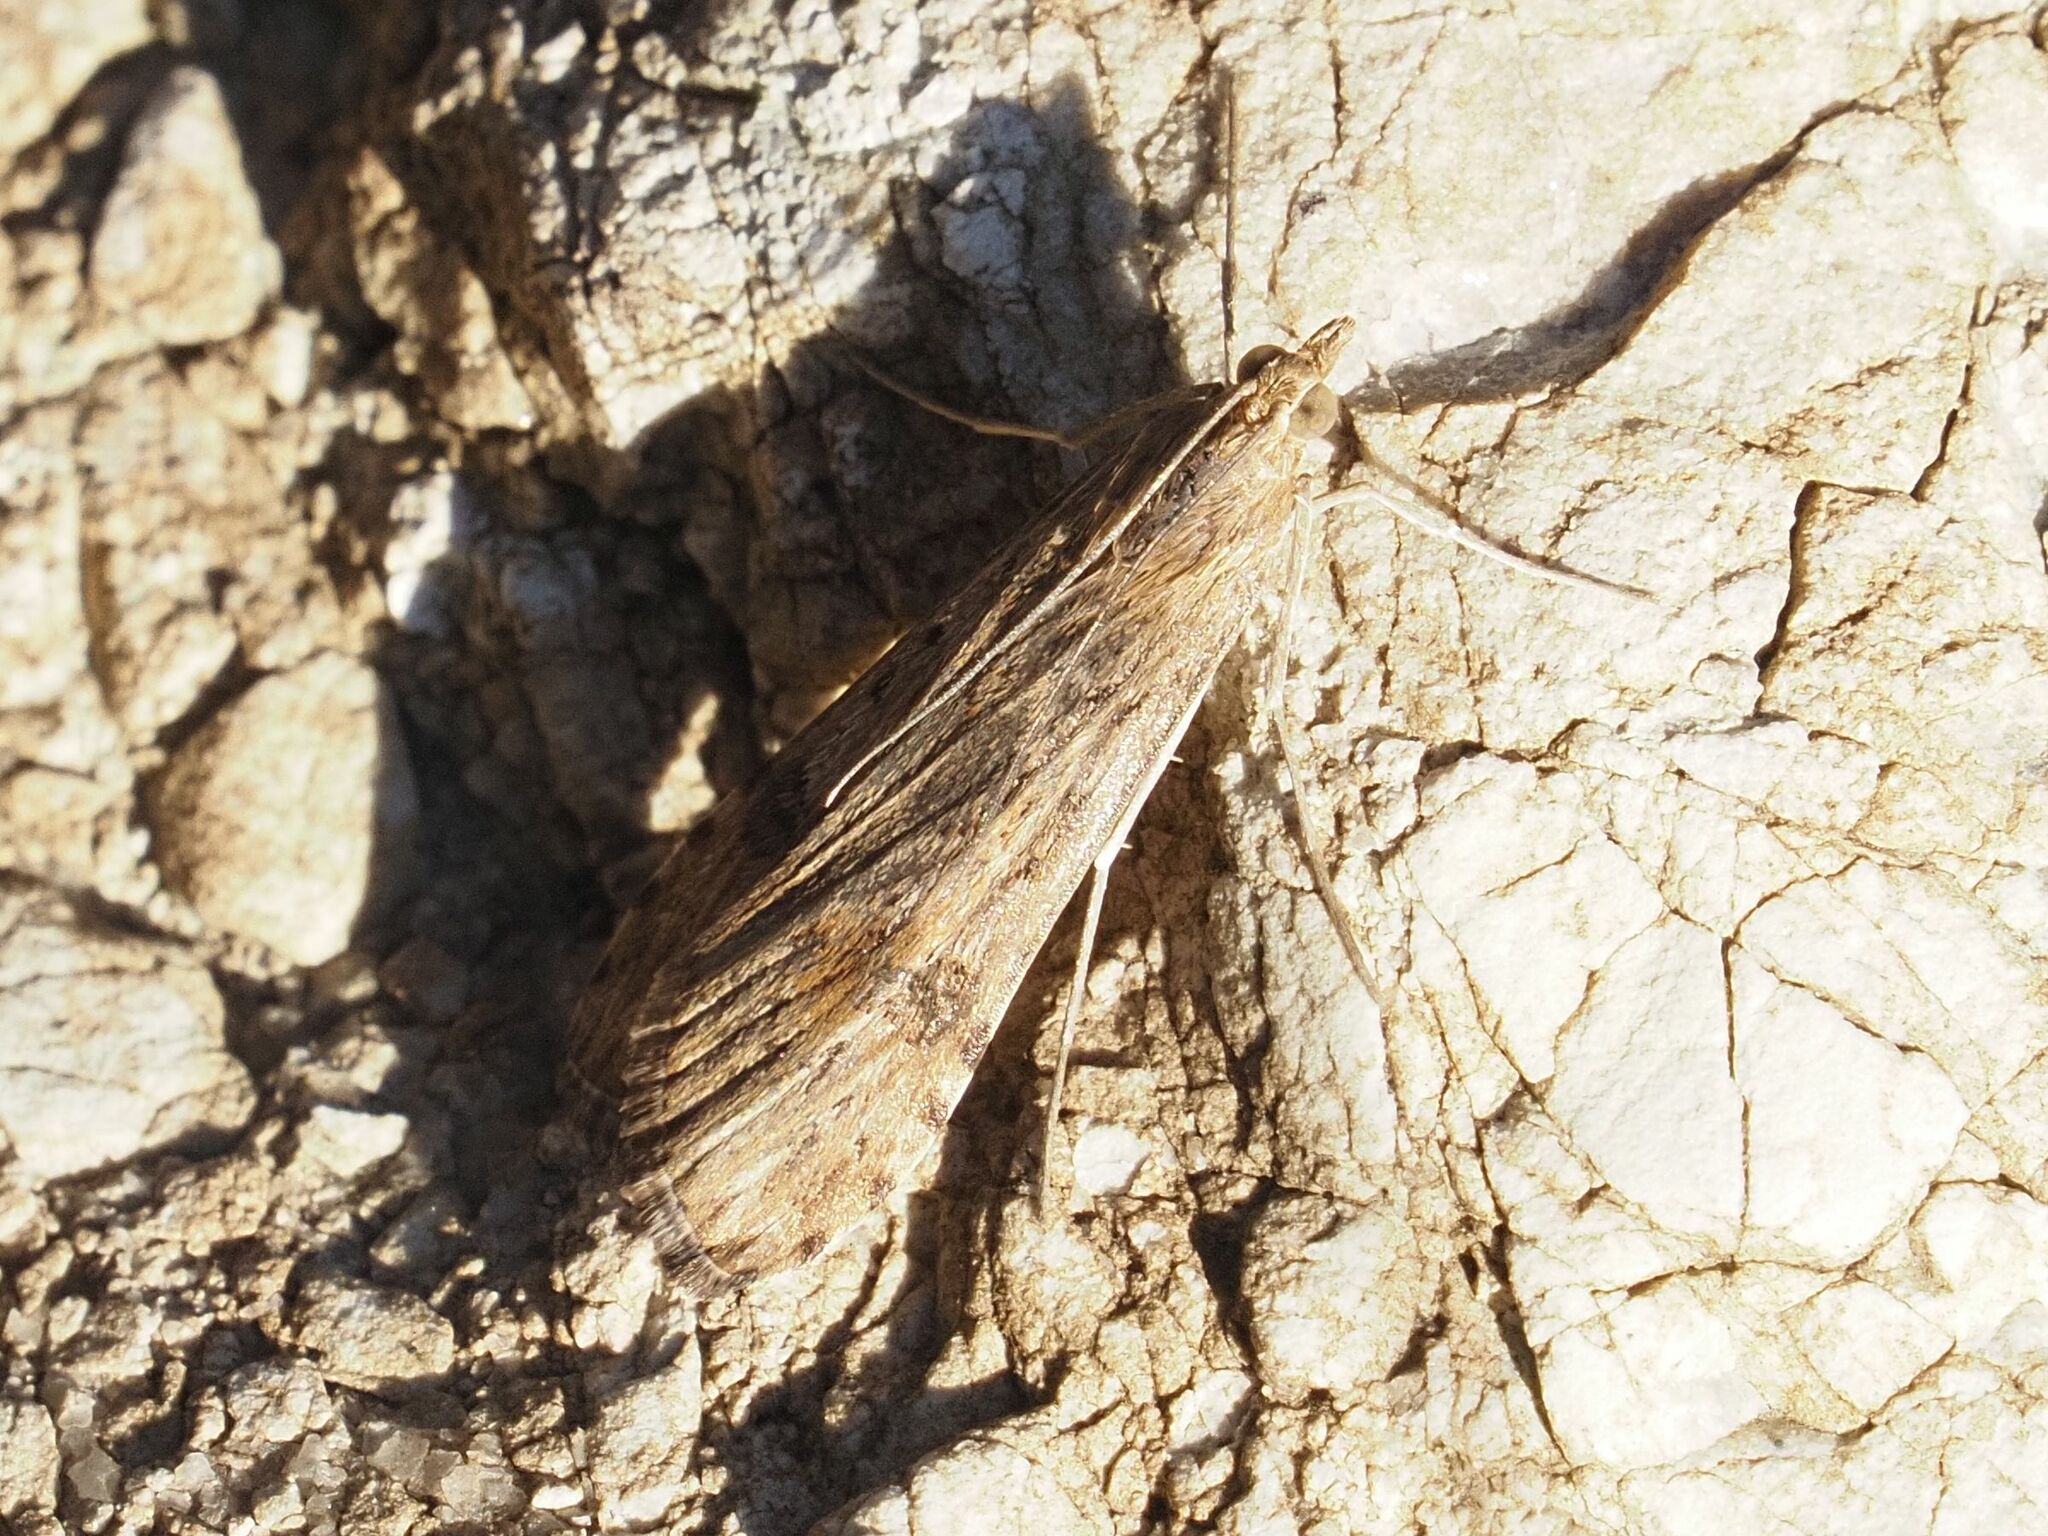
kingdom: Animalia
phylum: Arthropoda
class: Insecta
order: Lepidoptera
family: Crambidae
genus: Nomophila
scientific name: Nomophila noctuella
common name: Rush veneer
